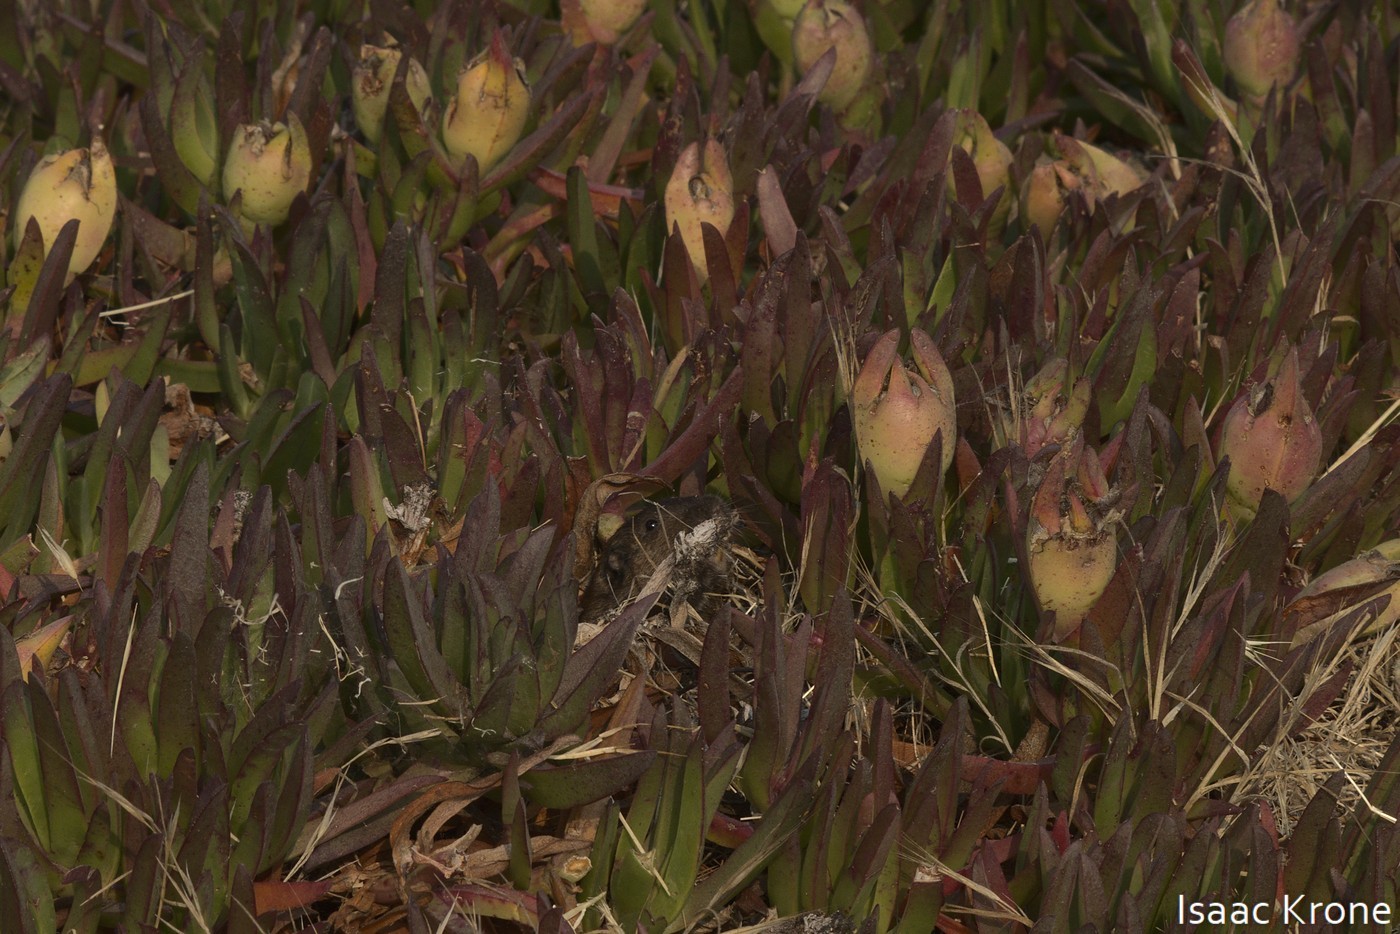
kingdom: Animalia
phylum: Chordata
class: Mammalia
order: Rodentia
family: Geomyidae
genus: Thomomys
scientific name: Thomomys bottae
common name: Botta's pocket gopher
